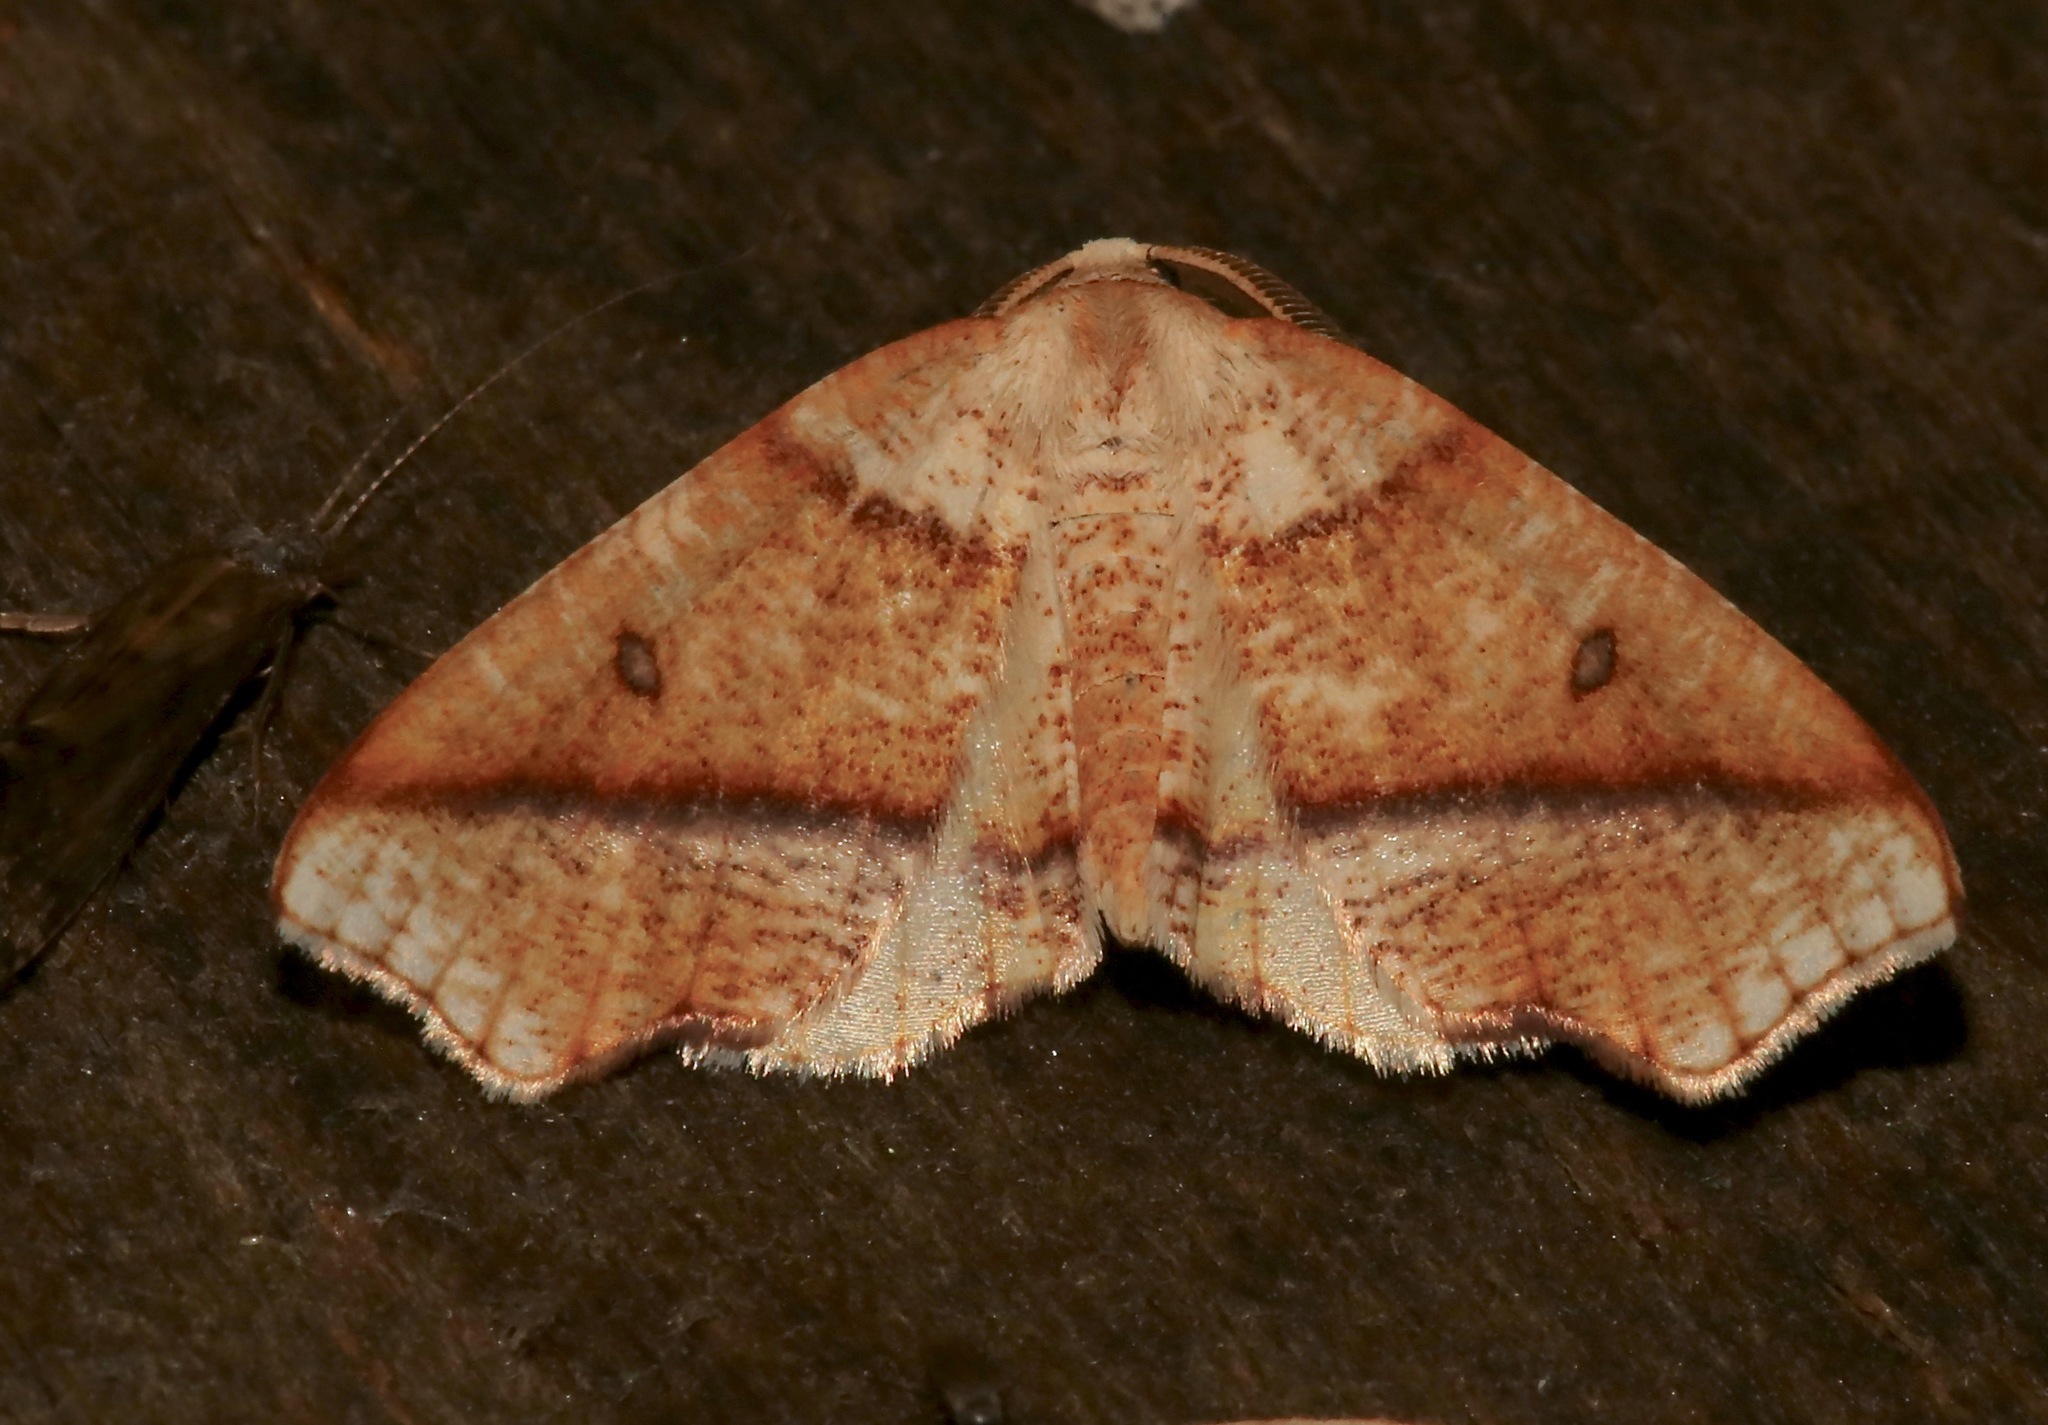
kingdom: Animalia
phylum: Arthropoda
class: Insecta
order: Lepidoptera
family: Geometridae
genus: Plagodis
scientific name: Plagodis alcoolaria
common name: Hollow-spotted plagodis
